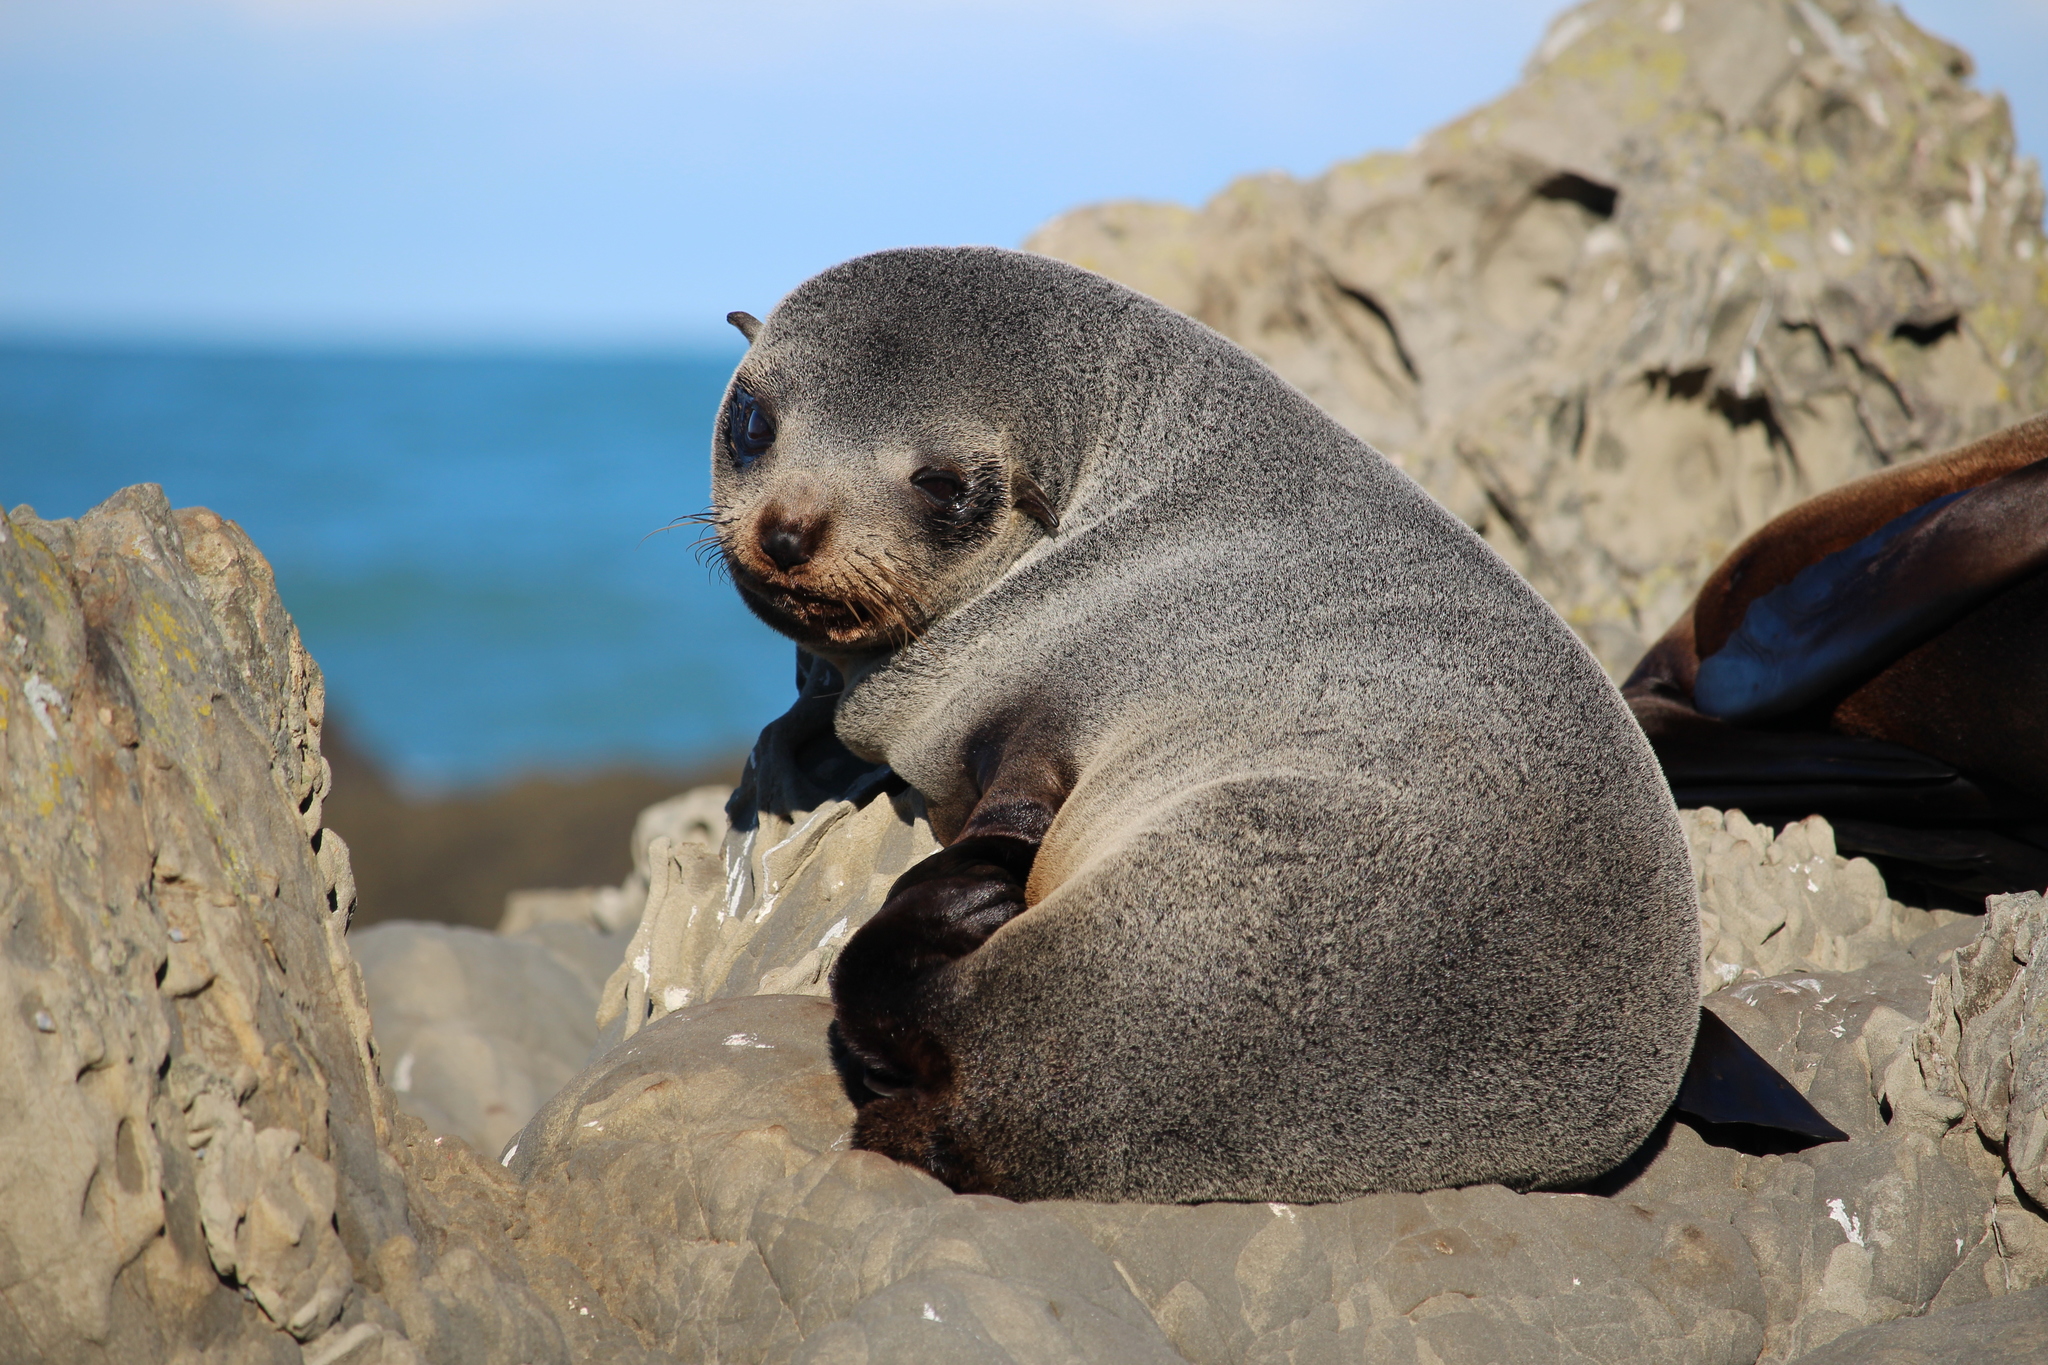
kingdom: Animalia
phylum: Chordata
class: Mammalia
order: Carnivora
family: Otariidae
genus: Arctocephalus
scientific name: Arctocephalus forsteri
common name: New zealand fur seal
